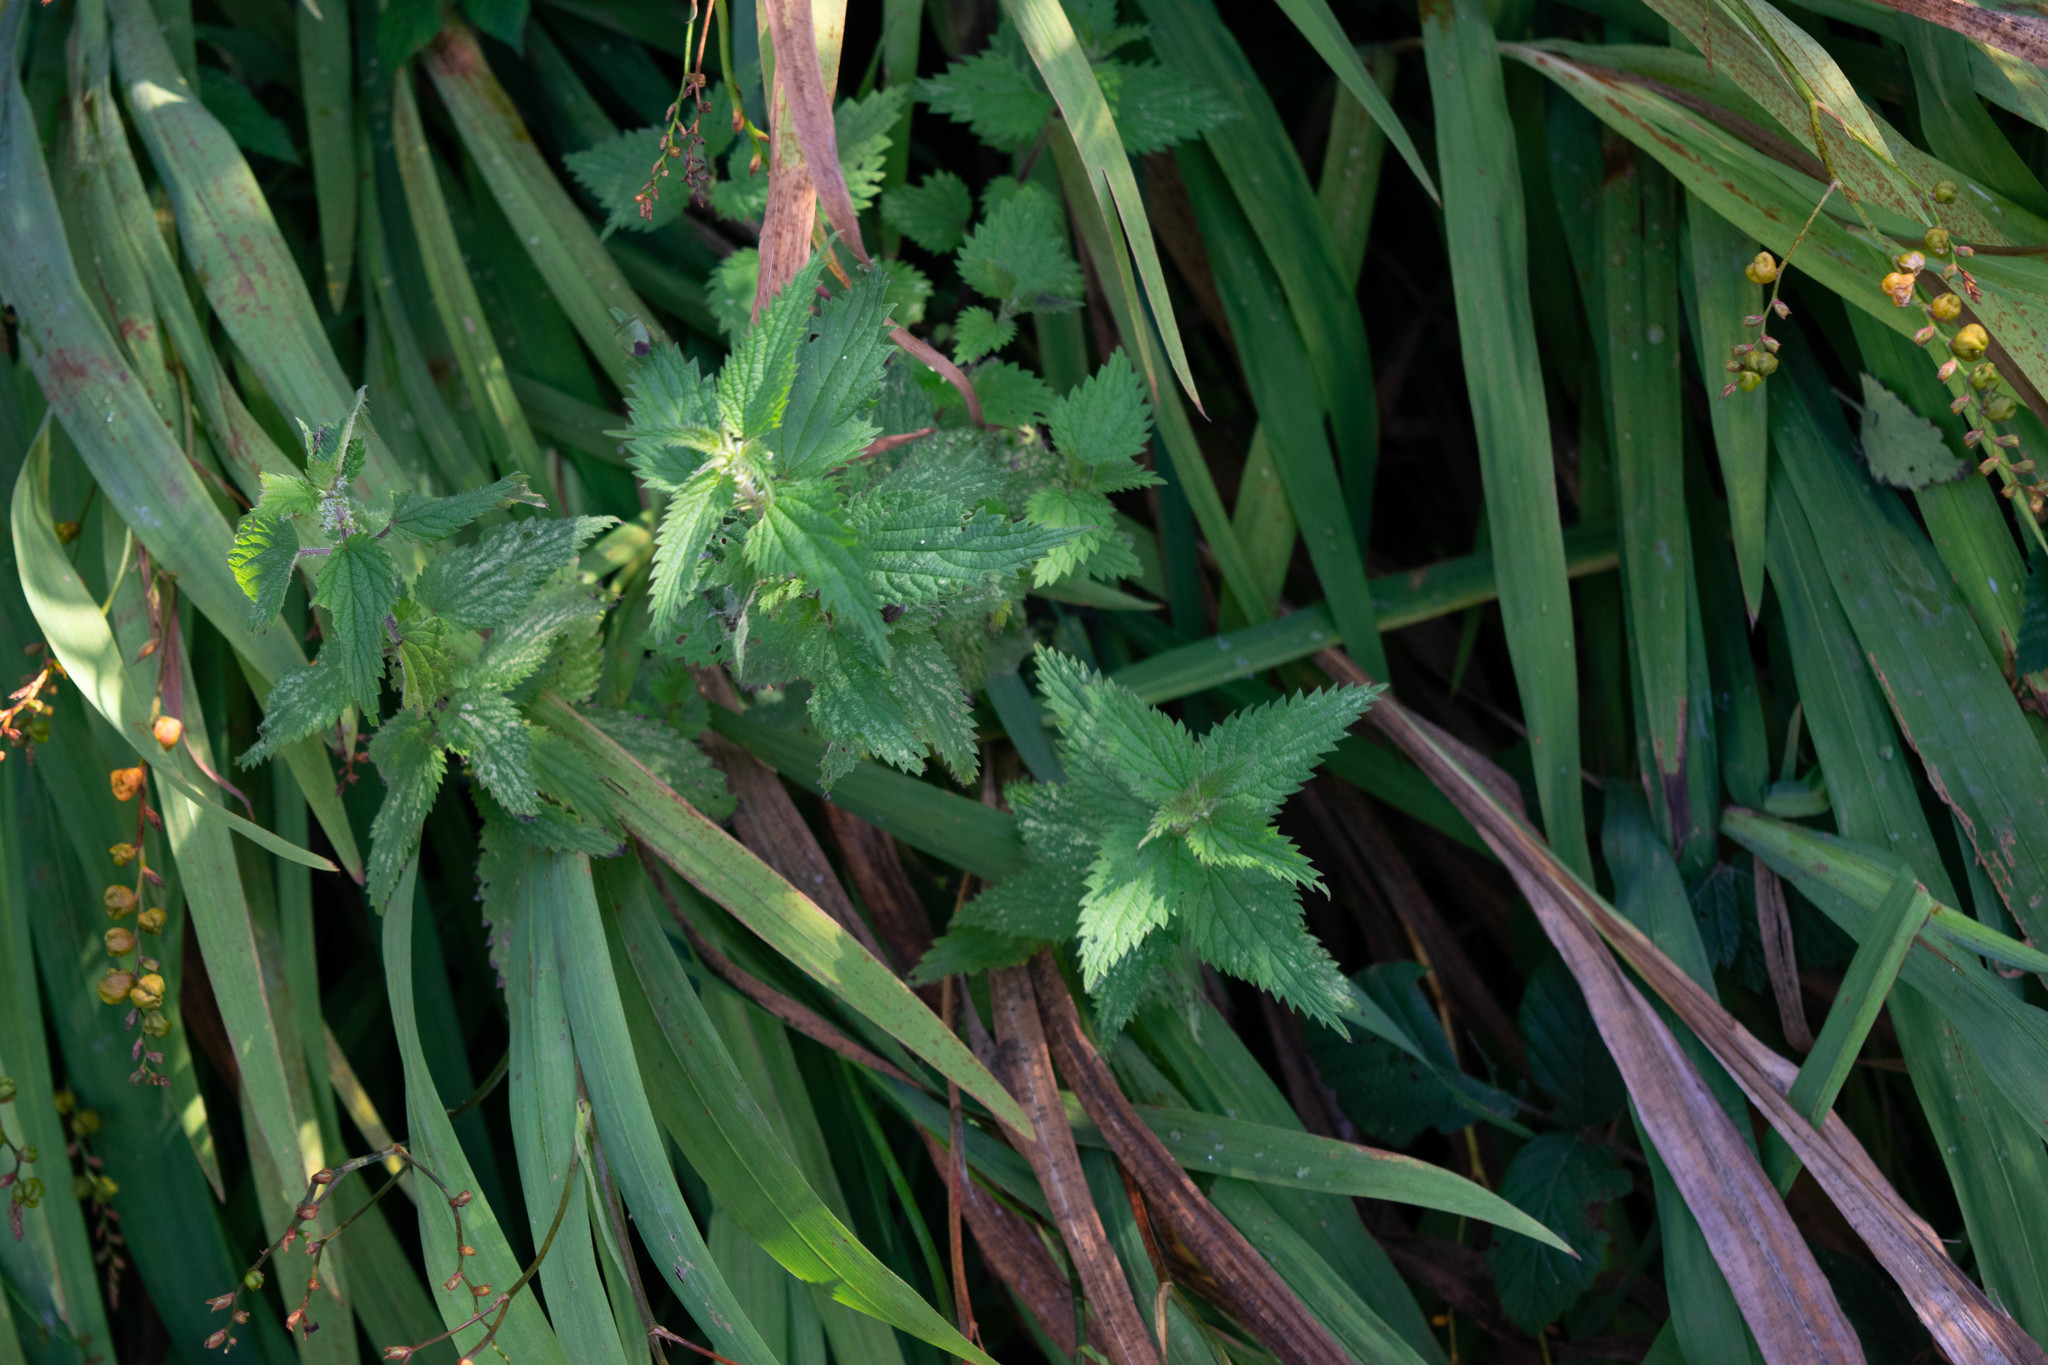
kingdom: Plantae
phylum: Tracheophyta
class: Magnoliopsida
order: Rosales
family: Urticaceae
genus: Urtica
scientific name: Urtica dioica
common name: Common nettle
